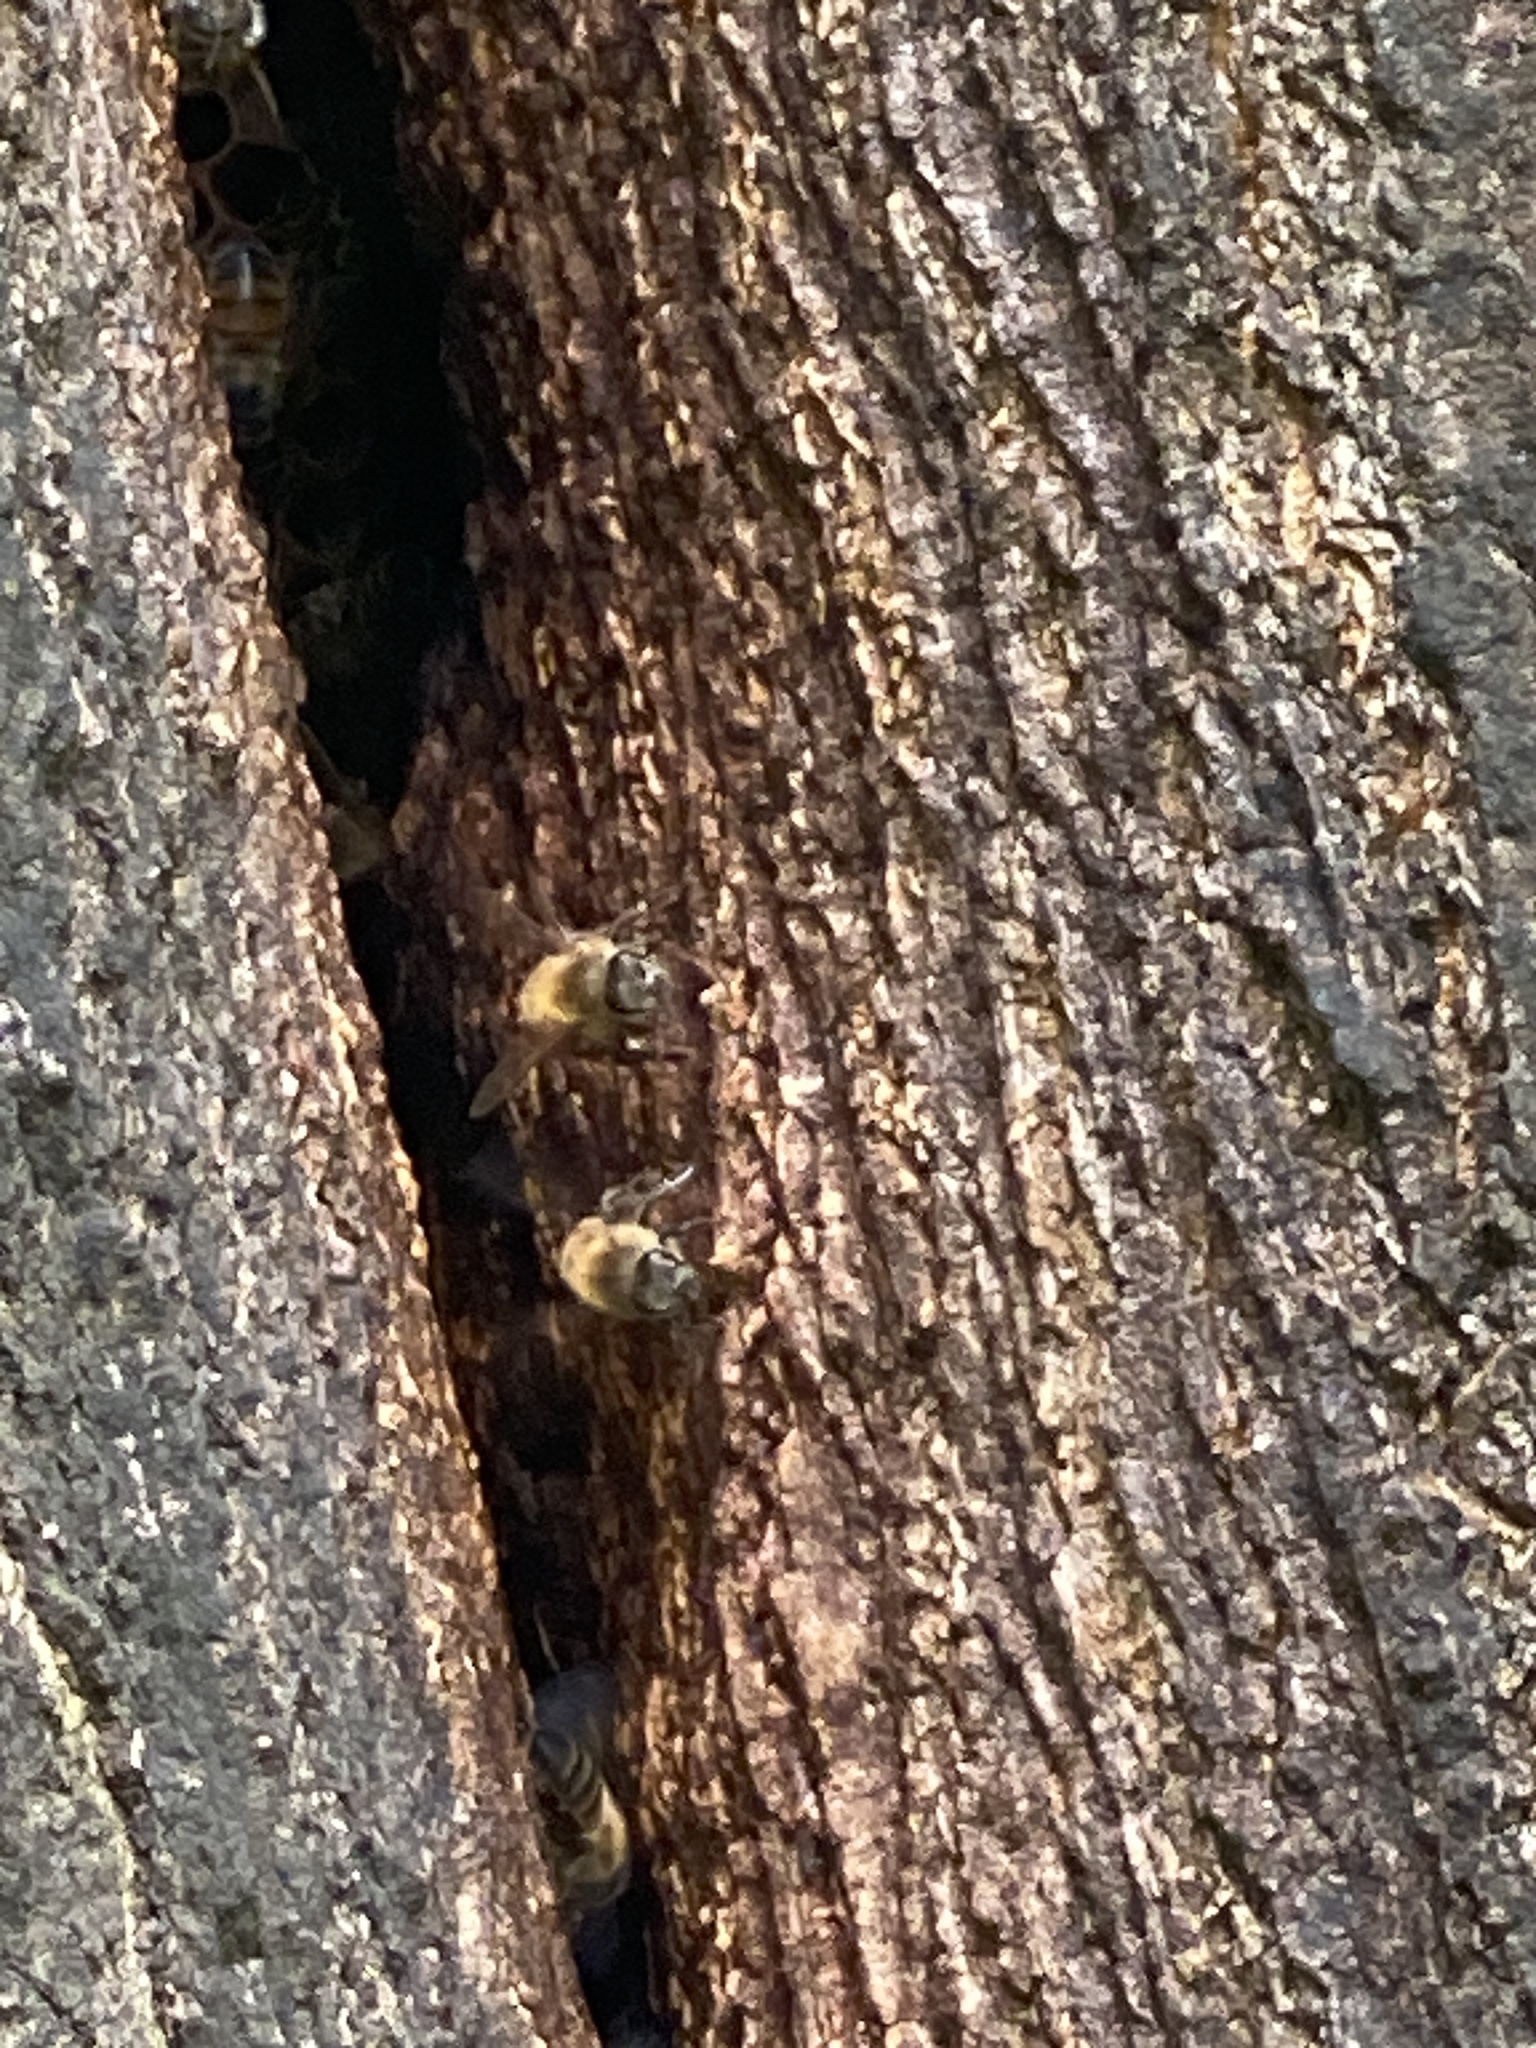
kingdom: Animalia
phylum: Arthropoda
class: Insecta
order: Hymenoptera
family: Apidae
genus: Apis
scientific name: Apis mellifera
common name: Honey bee
